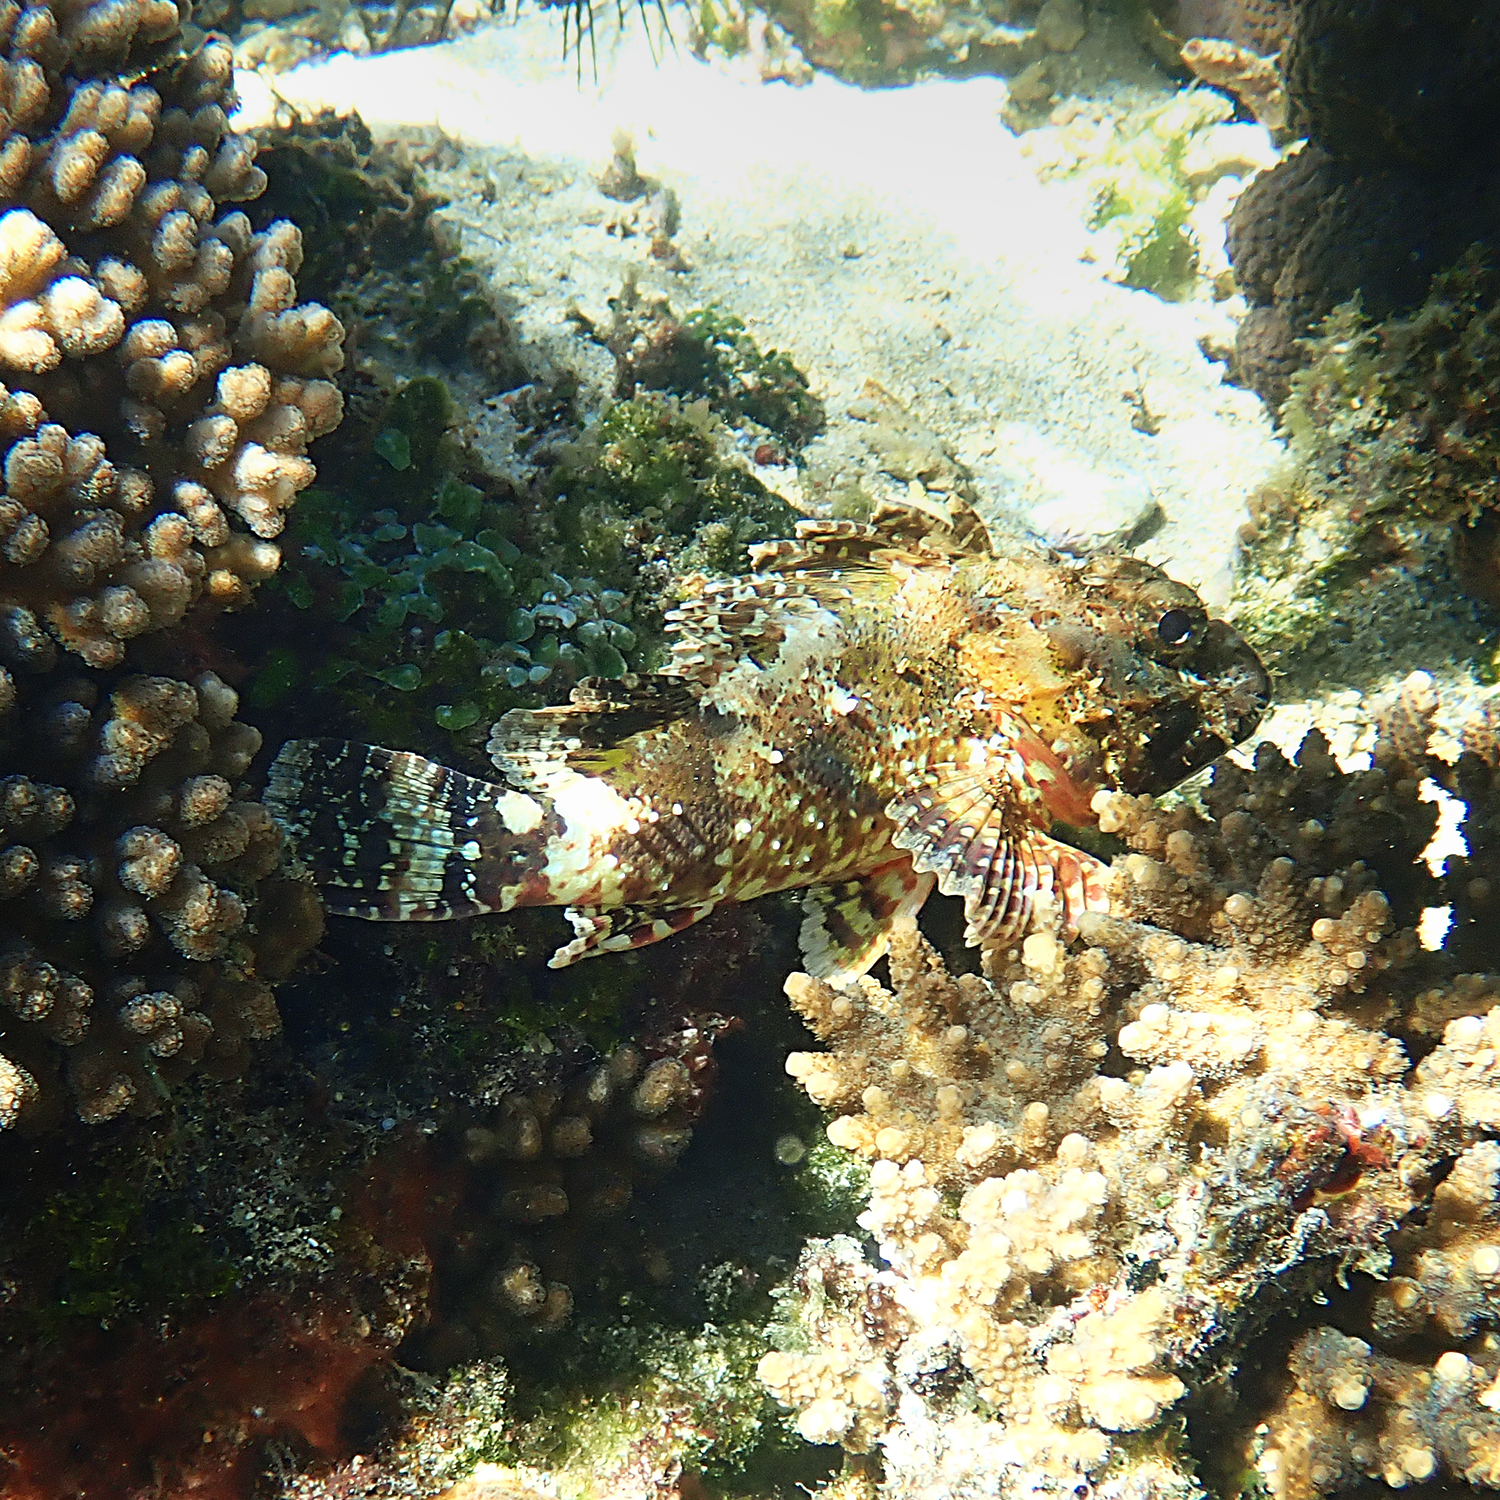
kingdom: Animalia
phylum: Chordata
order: Scorpaeniformes
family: Scorpaenidae
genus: Scorpaena
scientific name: Scorpaena cardinalis
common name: Cardinal scorpionfish
